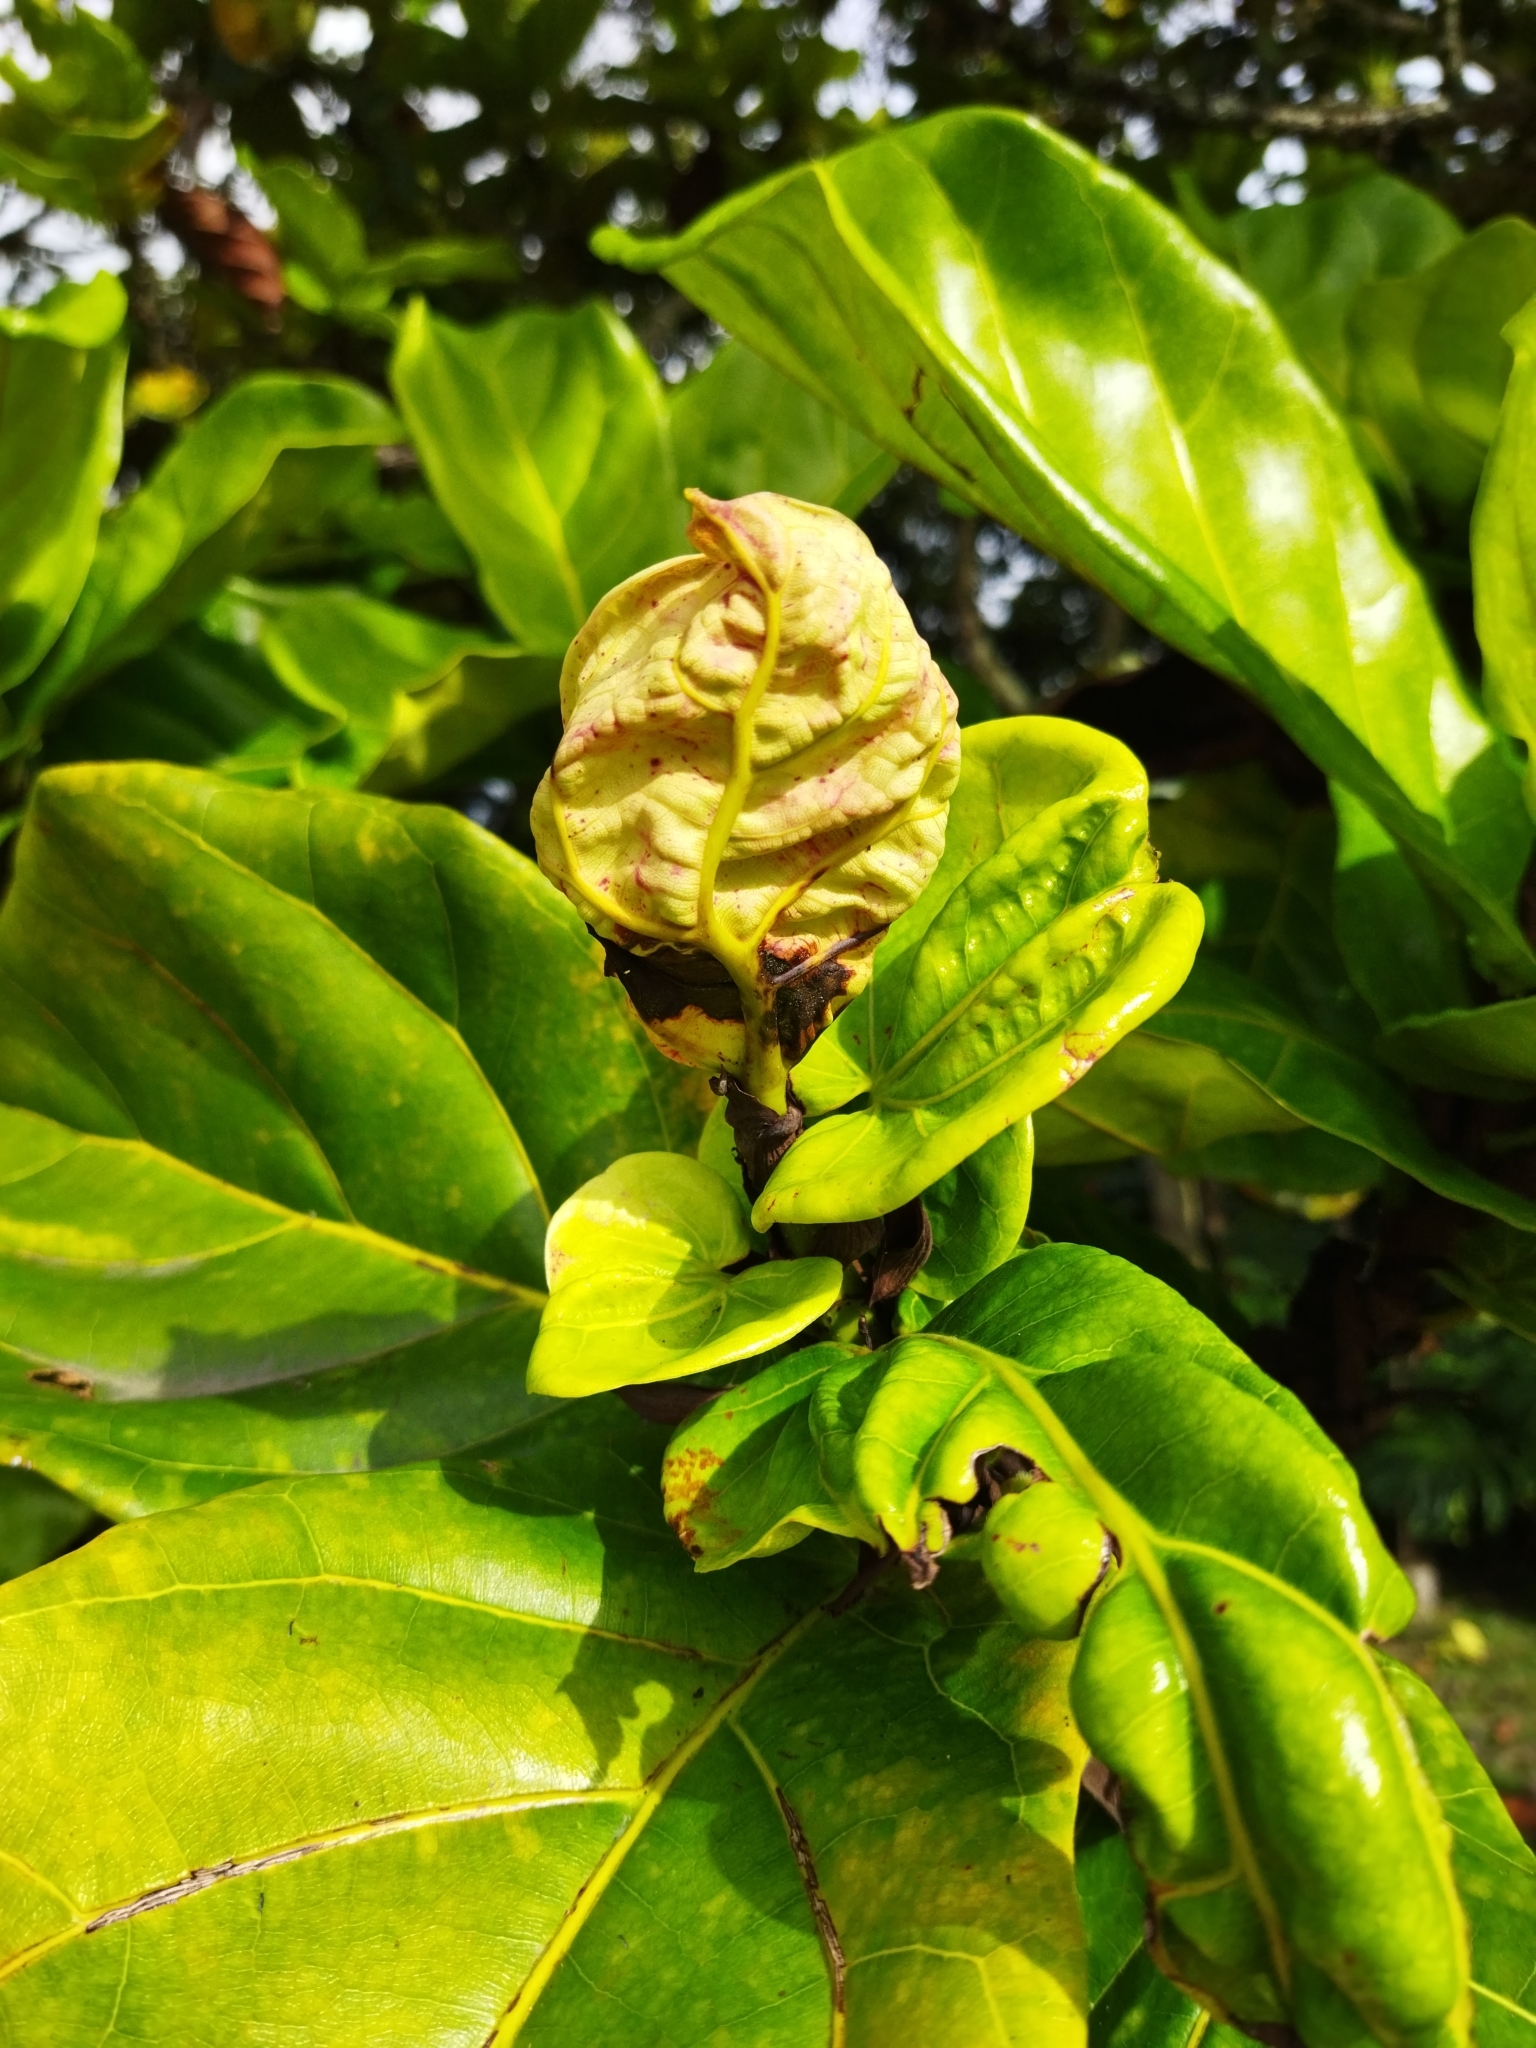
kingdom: Plantae
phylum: Tracheophyta
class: Magnoliopsida
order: Rosales
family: Moraceae
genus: Ficus
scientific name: Ficus lyrata
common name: Fiddle-leaf fig
